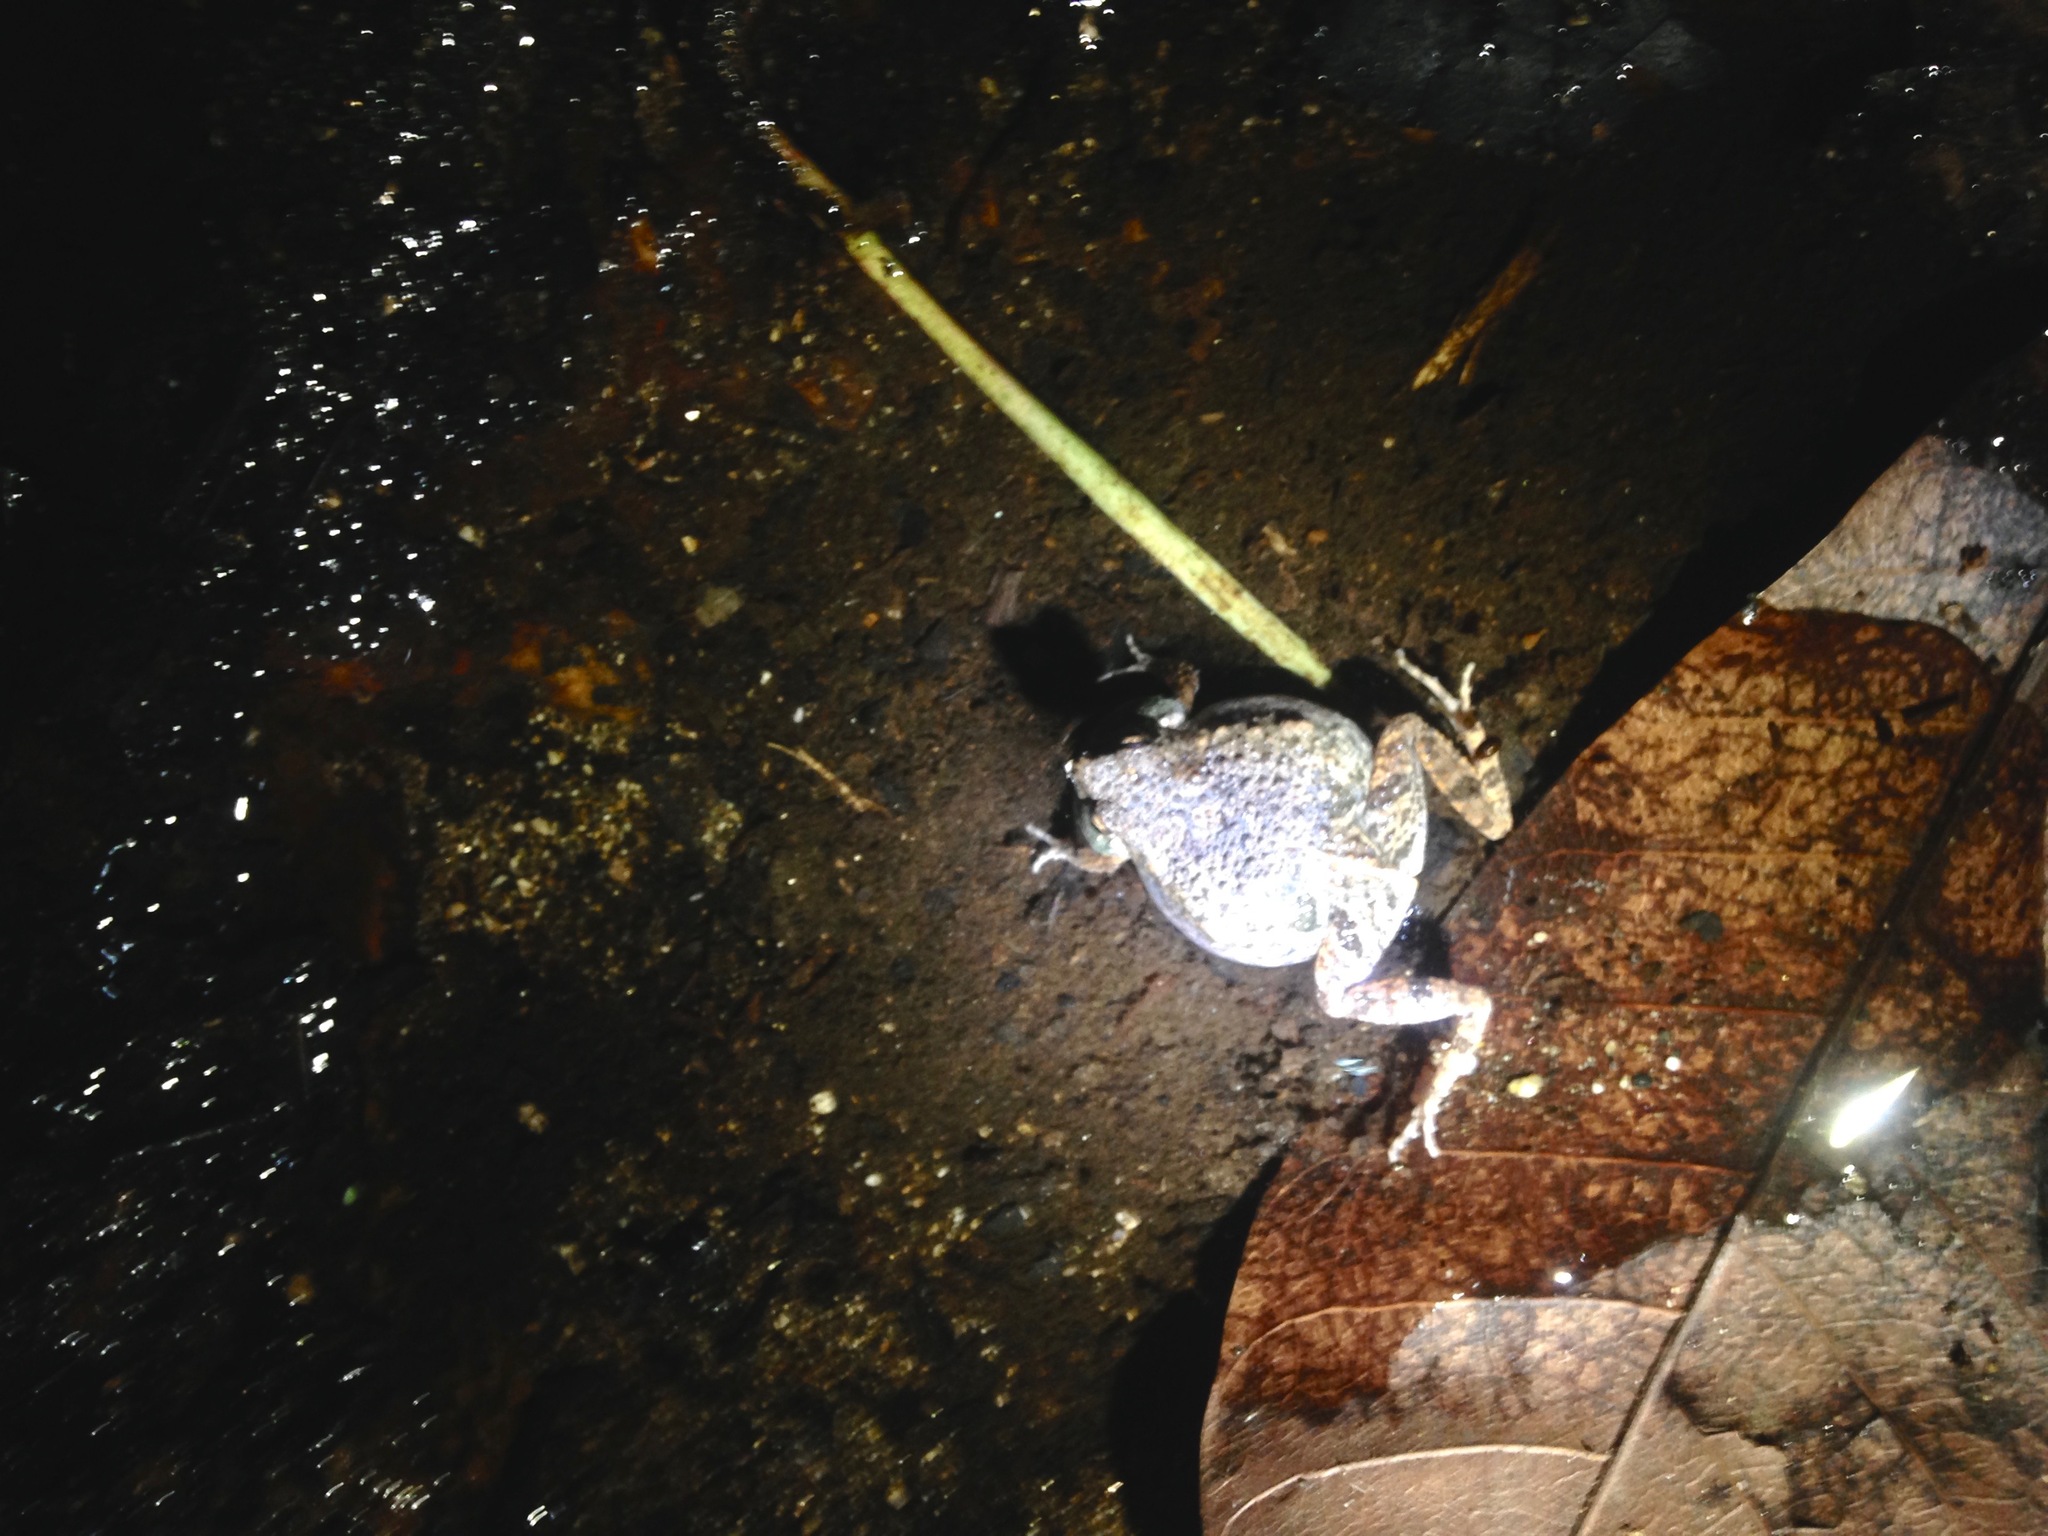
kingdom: Animalia
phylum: Chordata
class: Amphibia
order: Anura
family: Leptodactylidae
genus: Engystomops
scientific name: Engystomops pustulosus
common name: Tungara frog
